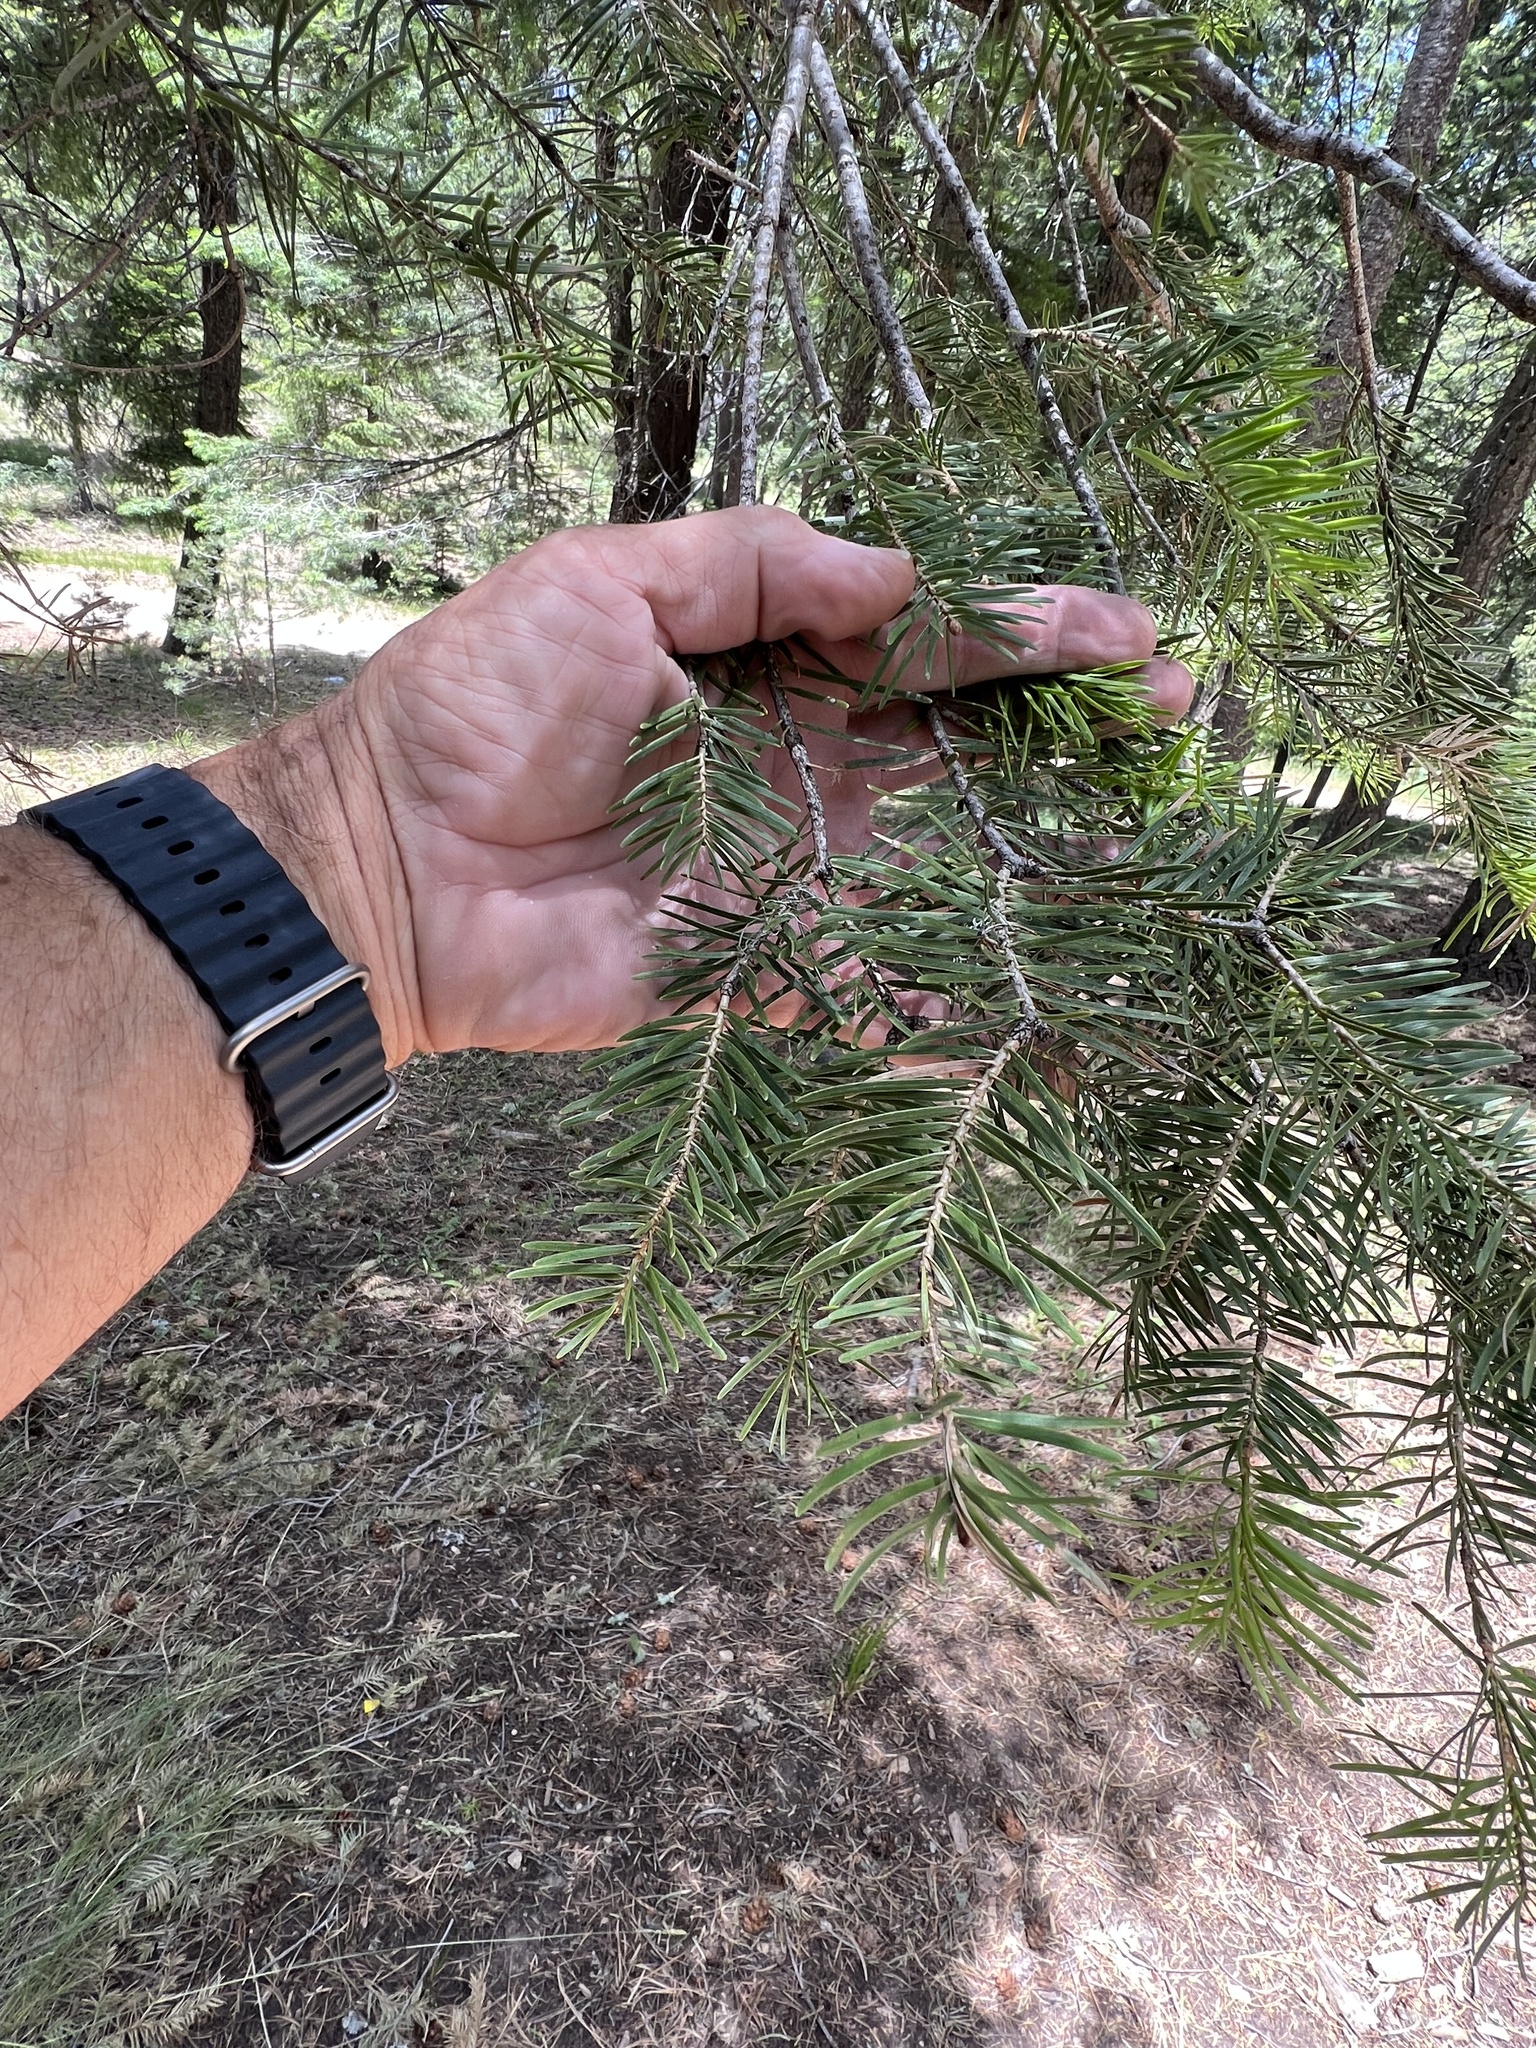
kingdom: Plantae
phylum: Tracheophyta
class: Pinopsida
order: Pinales
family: Pinaceae
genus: Abies
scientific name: Abies concolor
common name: Colorado fir
